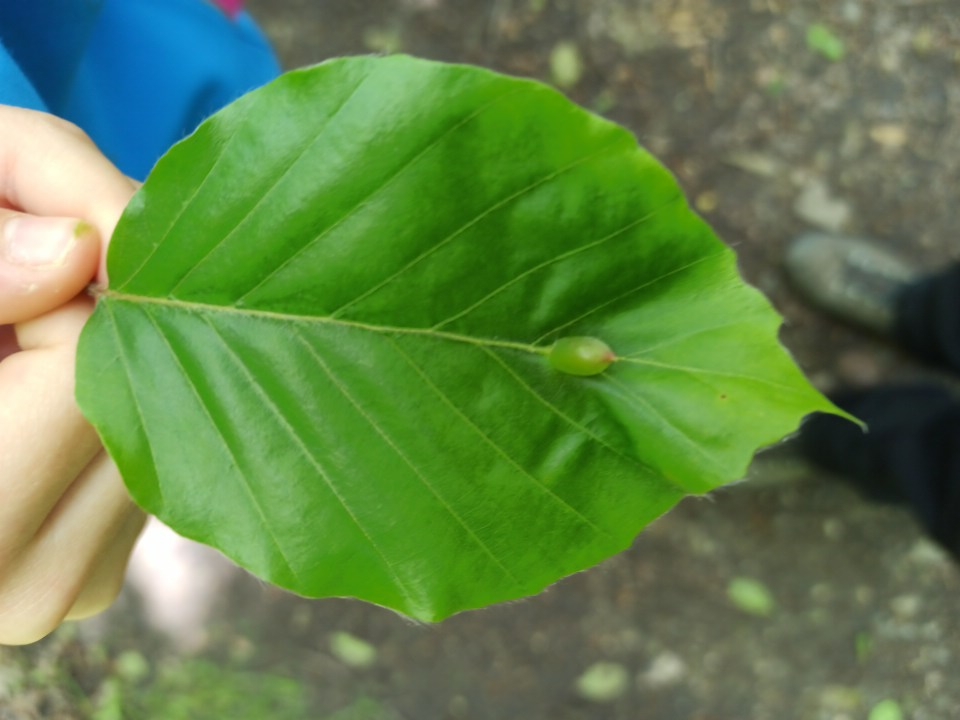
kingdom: Animalia
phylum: Arthropoda
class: Insecta
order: Diptera
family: Cecidomyiidae
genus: Mikiola
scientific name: Mikiola fagi
